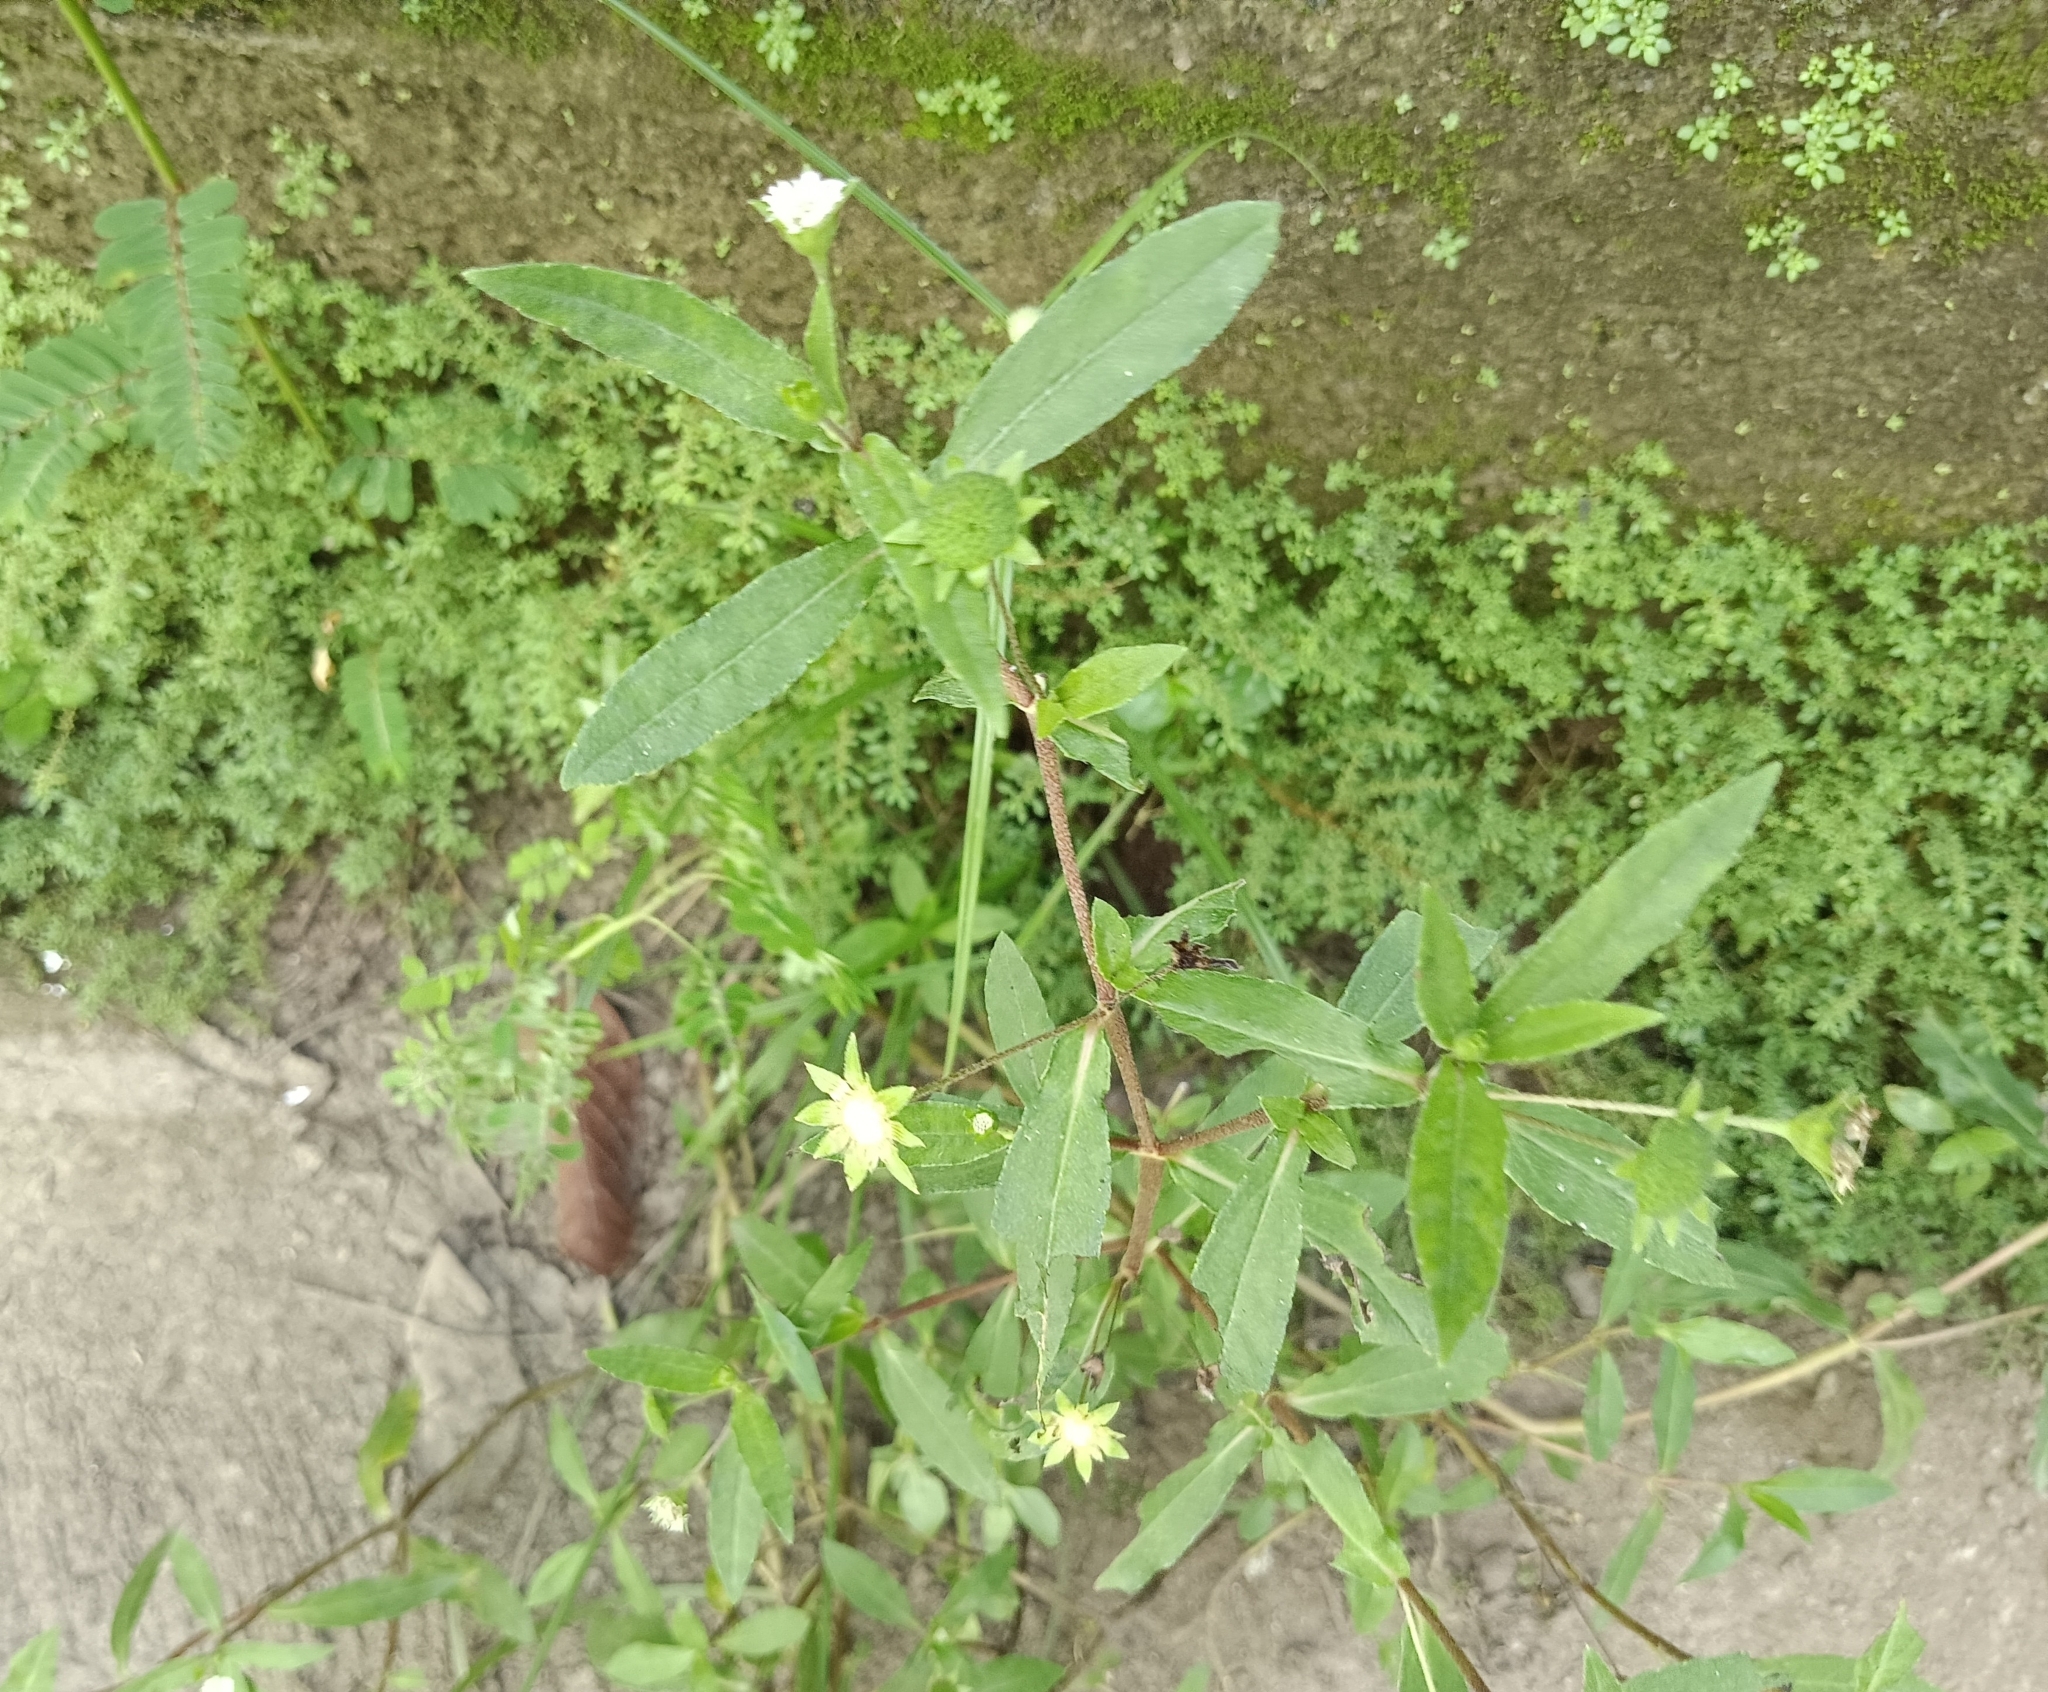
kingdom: Plantae
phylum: Tracheophyta
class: Magnoliopsida
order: Asterales
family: Asteraceae
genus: Eclipta
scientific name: Eclipta prostrata
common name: False daisy
